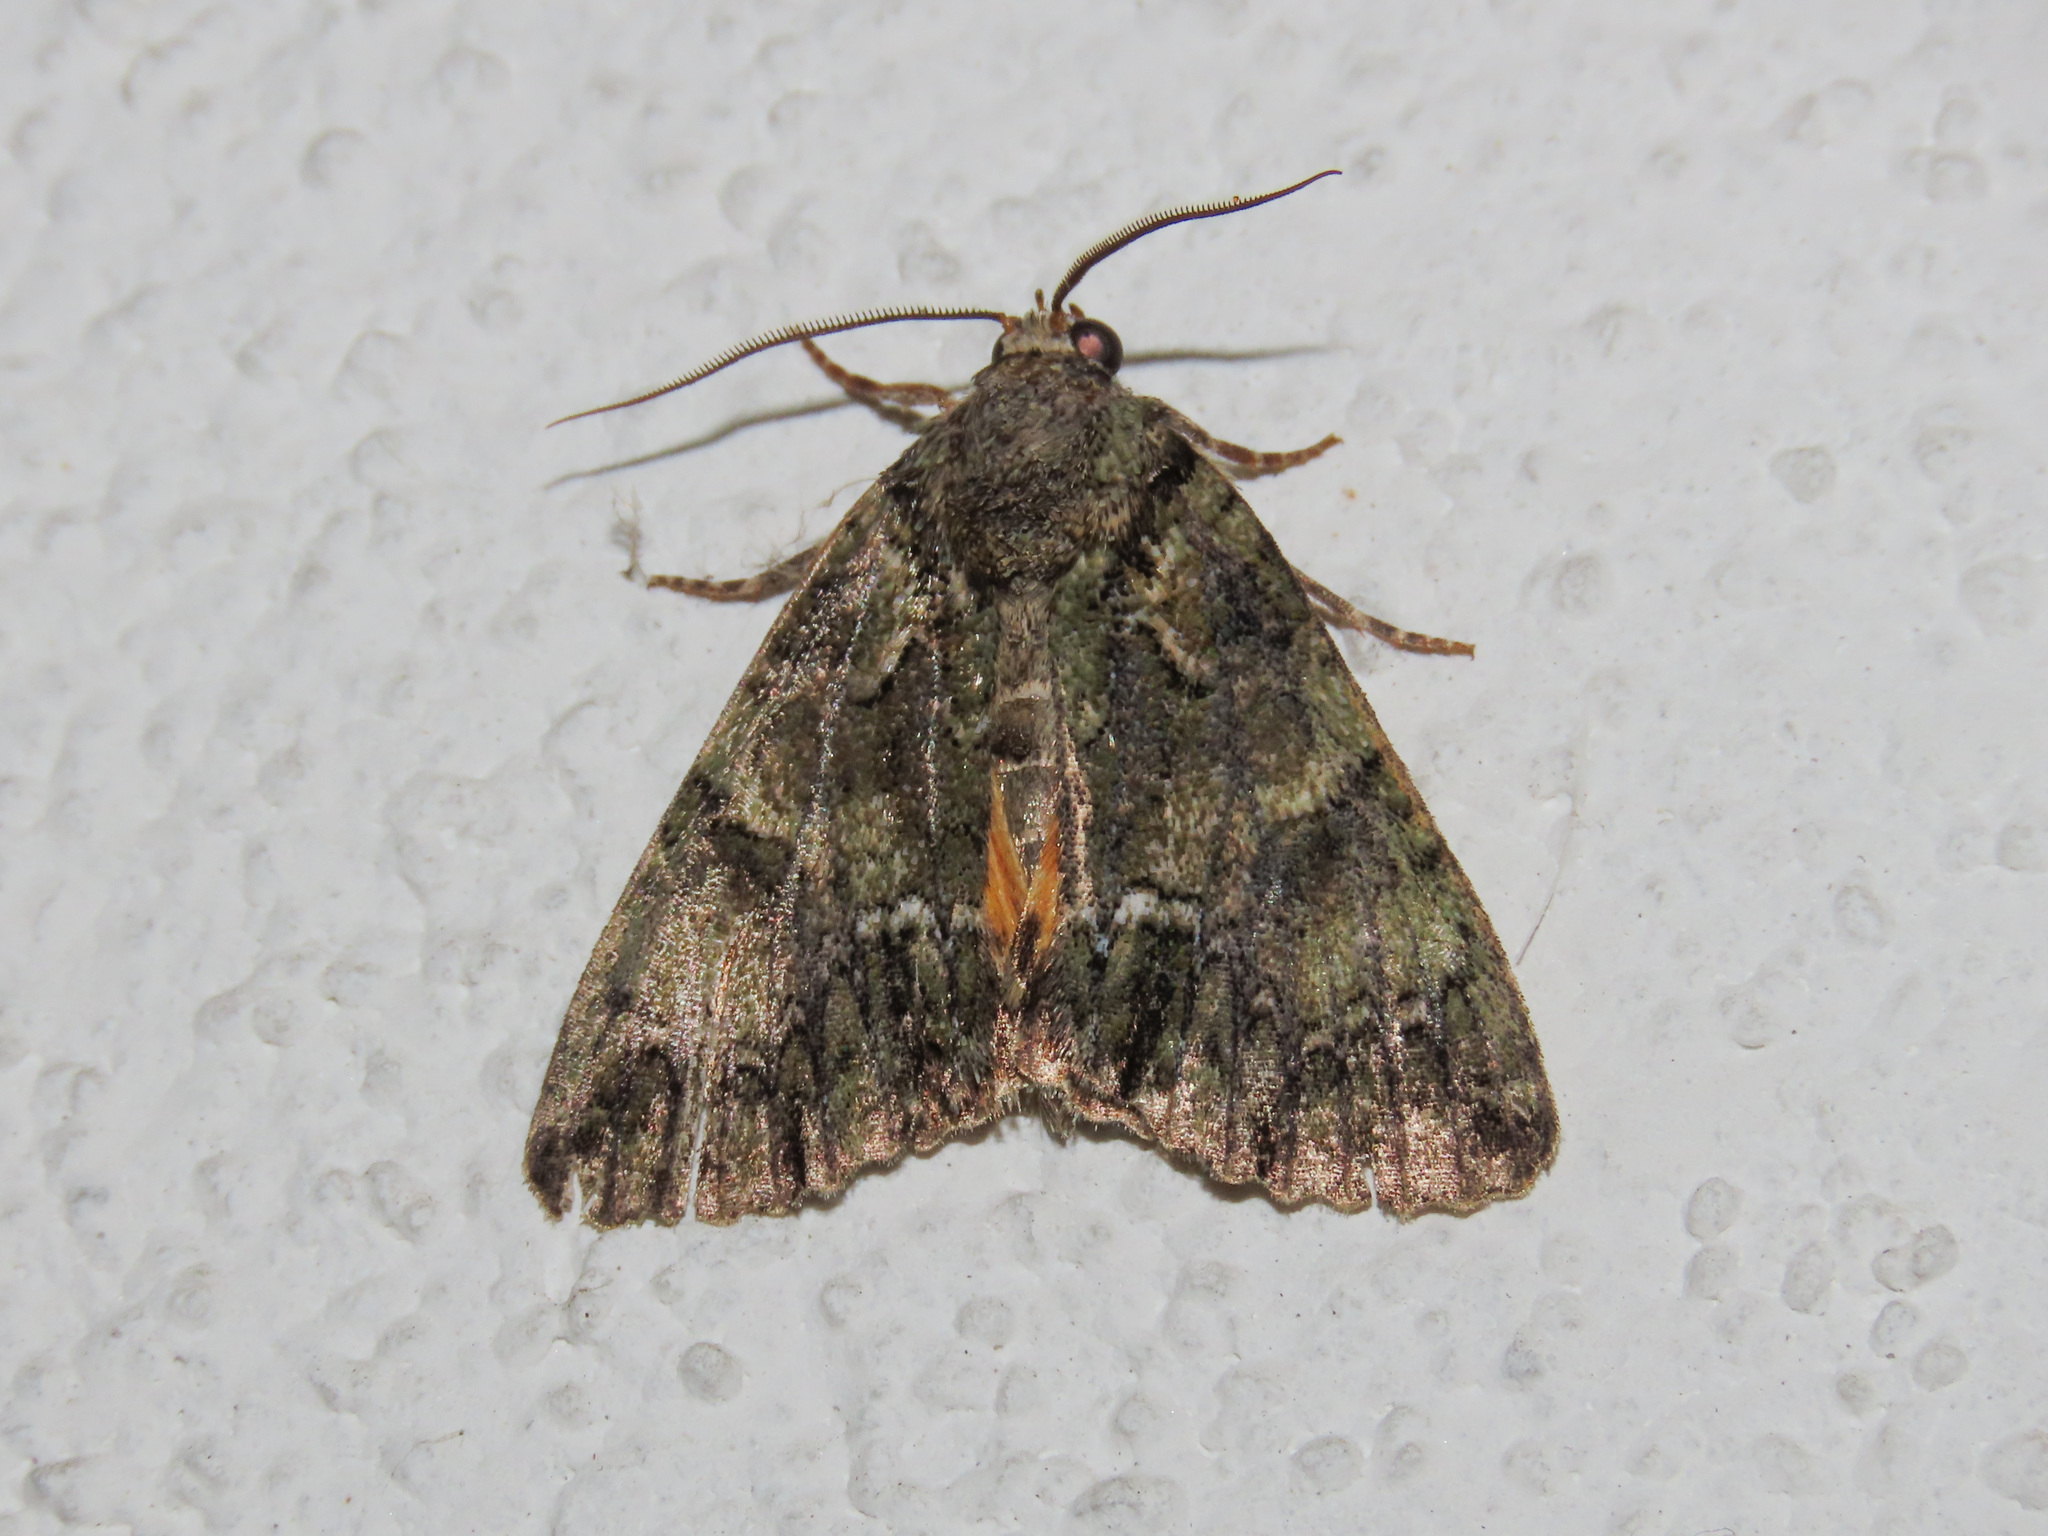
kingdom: Animalia
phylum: Arthropoda
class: Insecta
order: Lepidoptera
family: Noctuidae
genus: Polyphaenis
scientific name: Polyphaenis sericata
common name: Guernsey underwing
